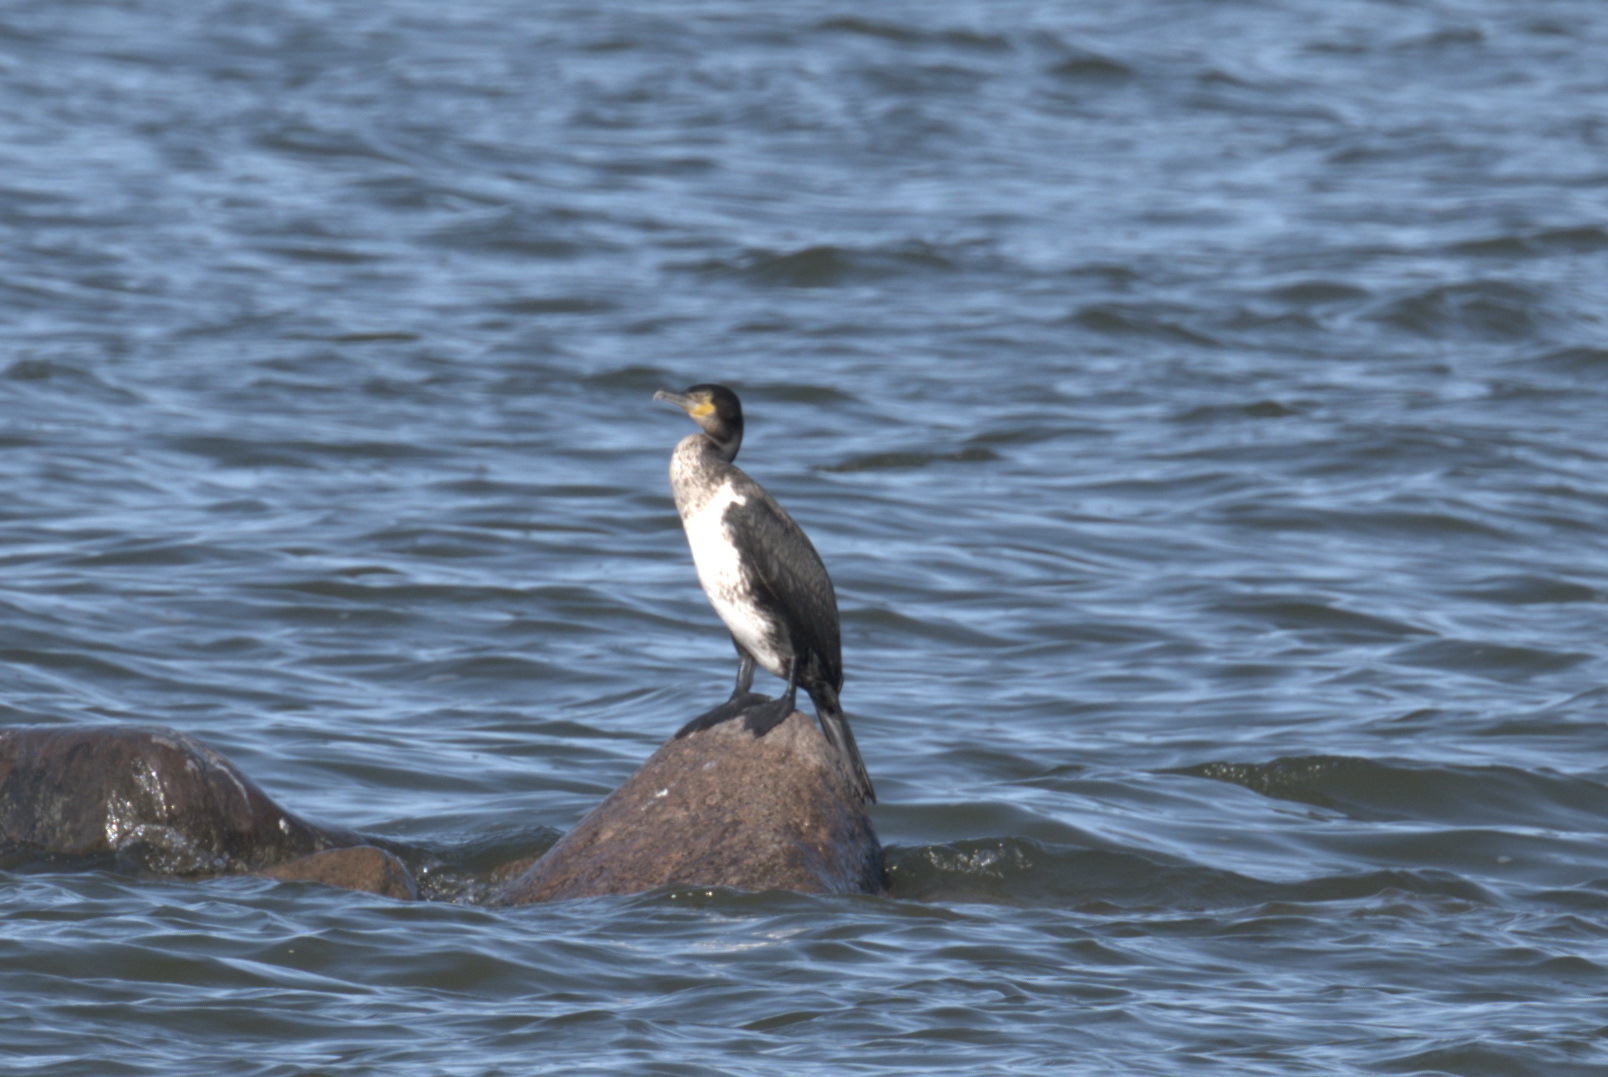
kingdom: Animalia
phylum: Chordata
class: Aves
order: Suliformes
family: Phalacrocoracidae
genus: Phalacrocorax
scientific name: Phalacrocorax carbo
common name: Great cormorant
